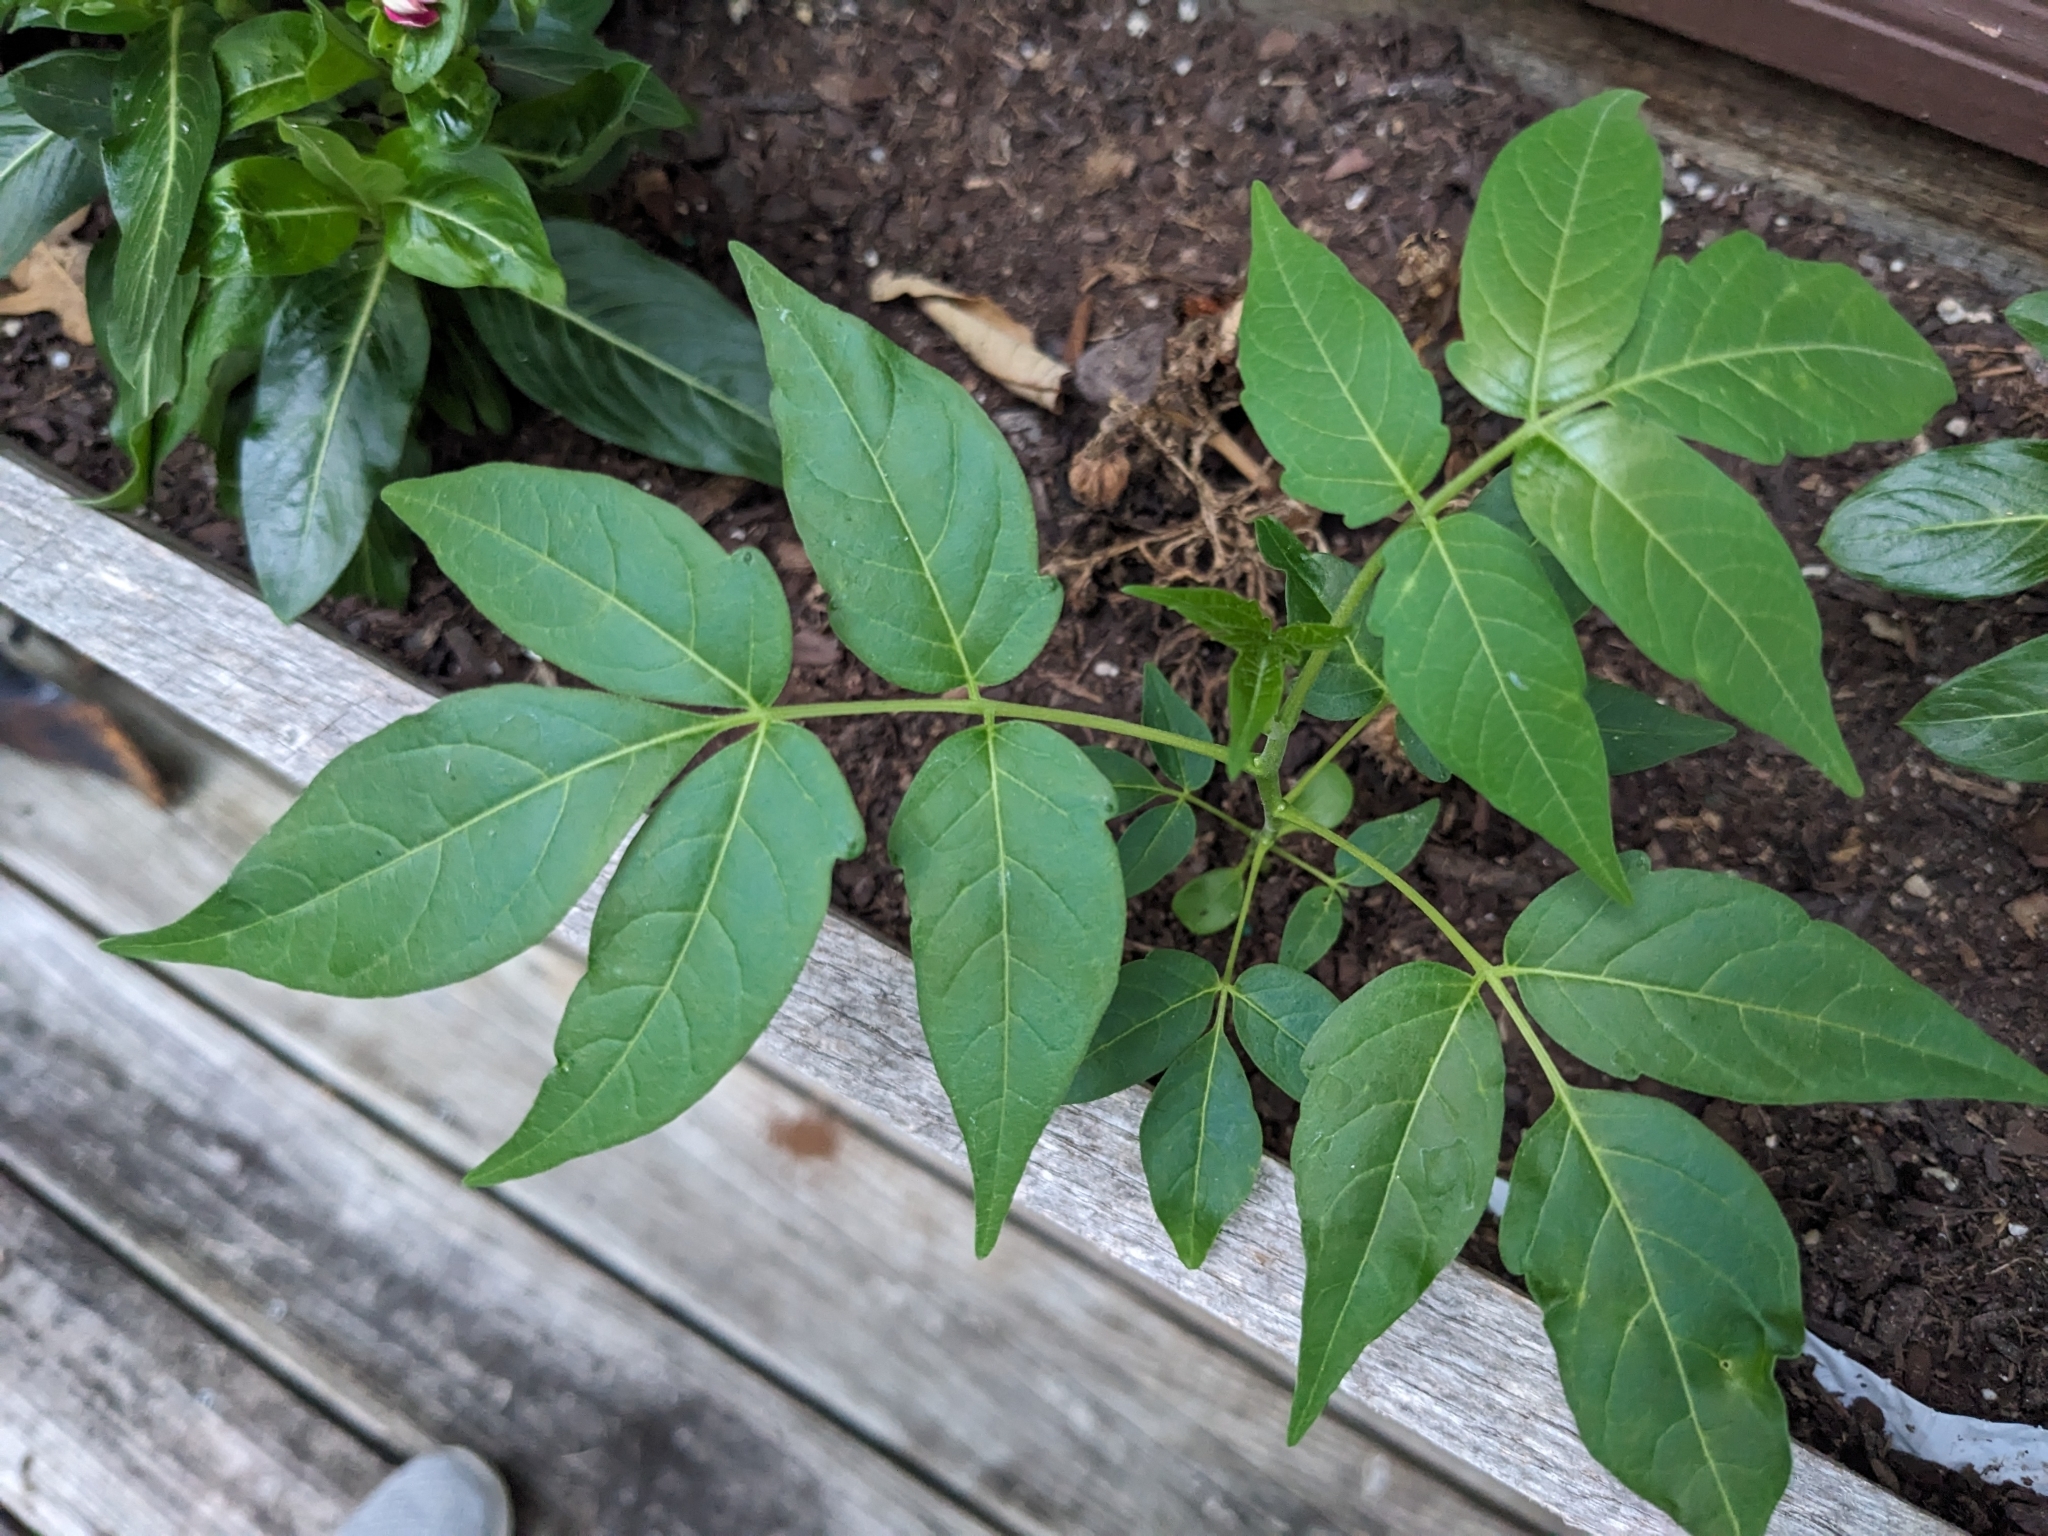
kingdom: Plantae
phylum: Tracheophyta
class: Magnoliopsida
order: Sapindales
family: Simaroubaceae
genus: Ailanthus
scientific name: Ailanthus altissima
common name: Tree-of-heaven
